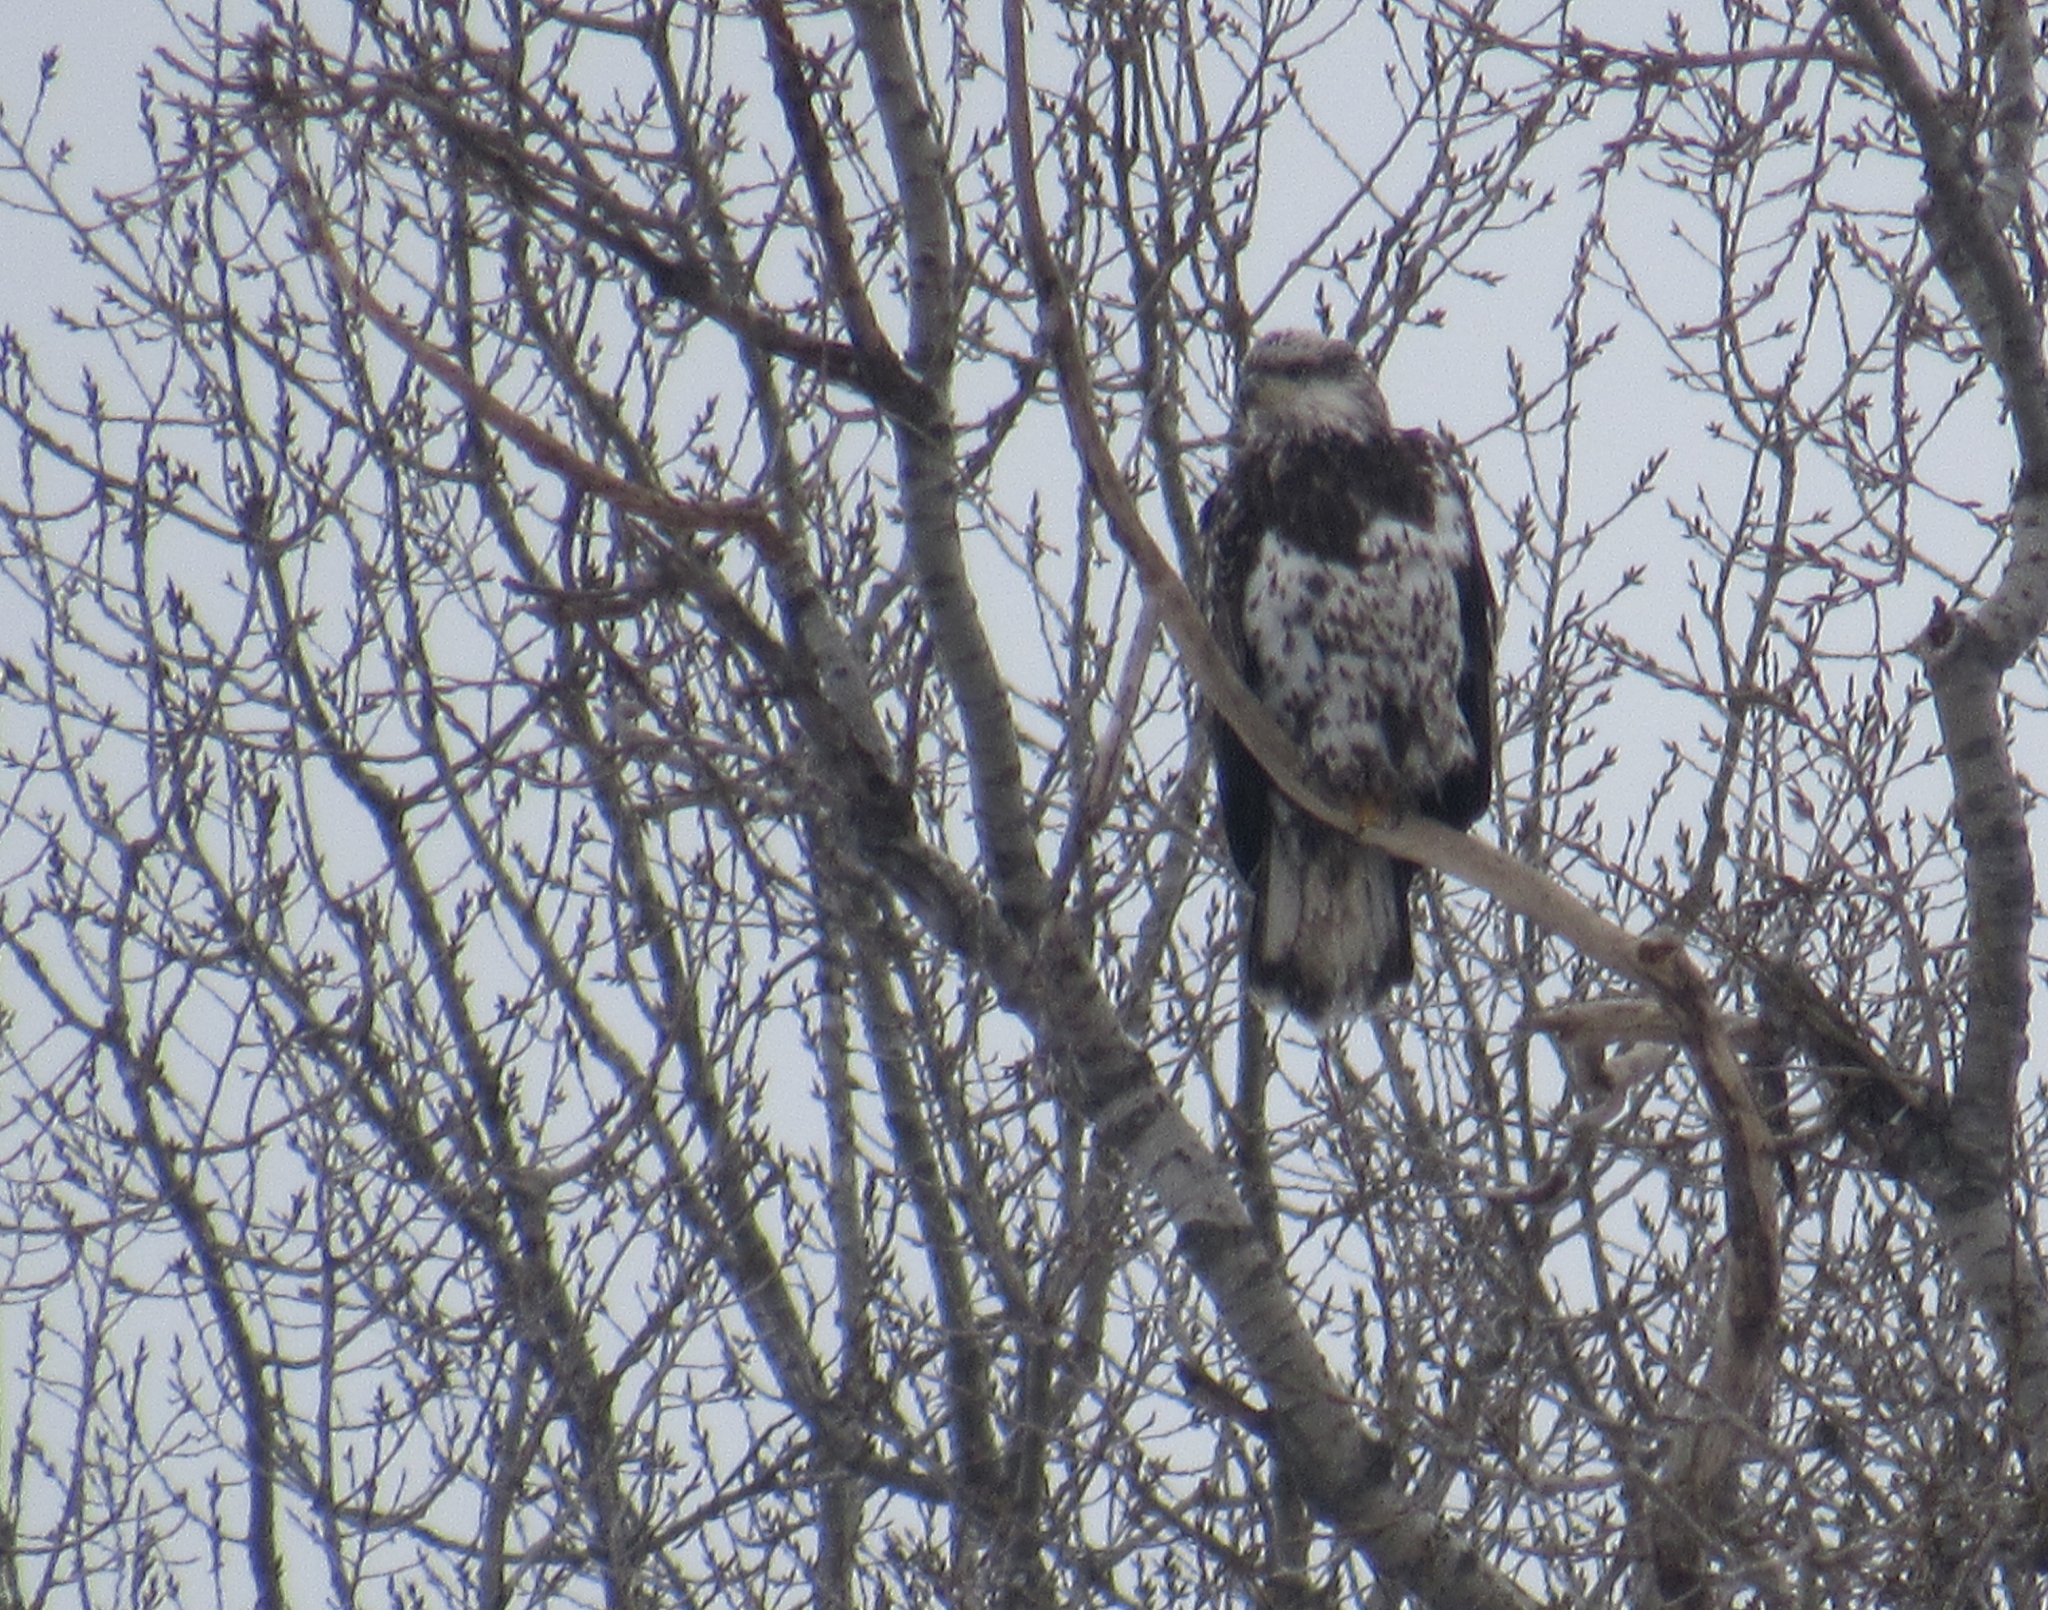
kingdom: Animalia
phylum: Chordata
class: Aves
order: Accipitriformes
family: Accipitridae
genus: Haliaeetus
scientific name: Haliaeetus leucocephalus
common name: Bald eagle
